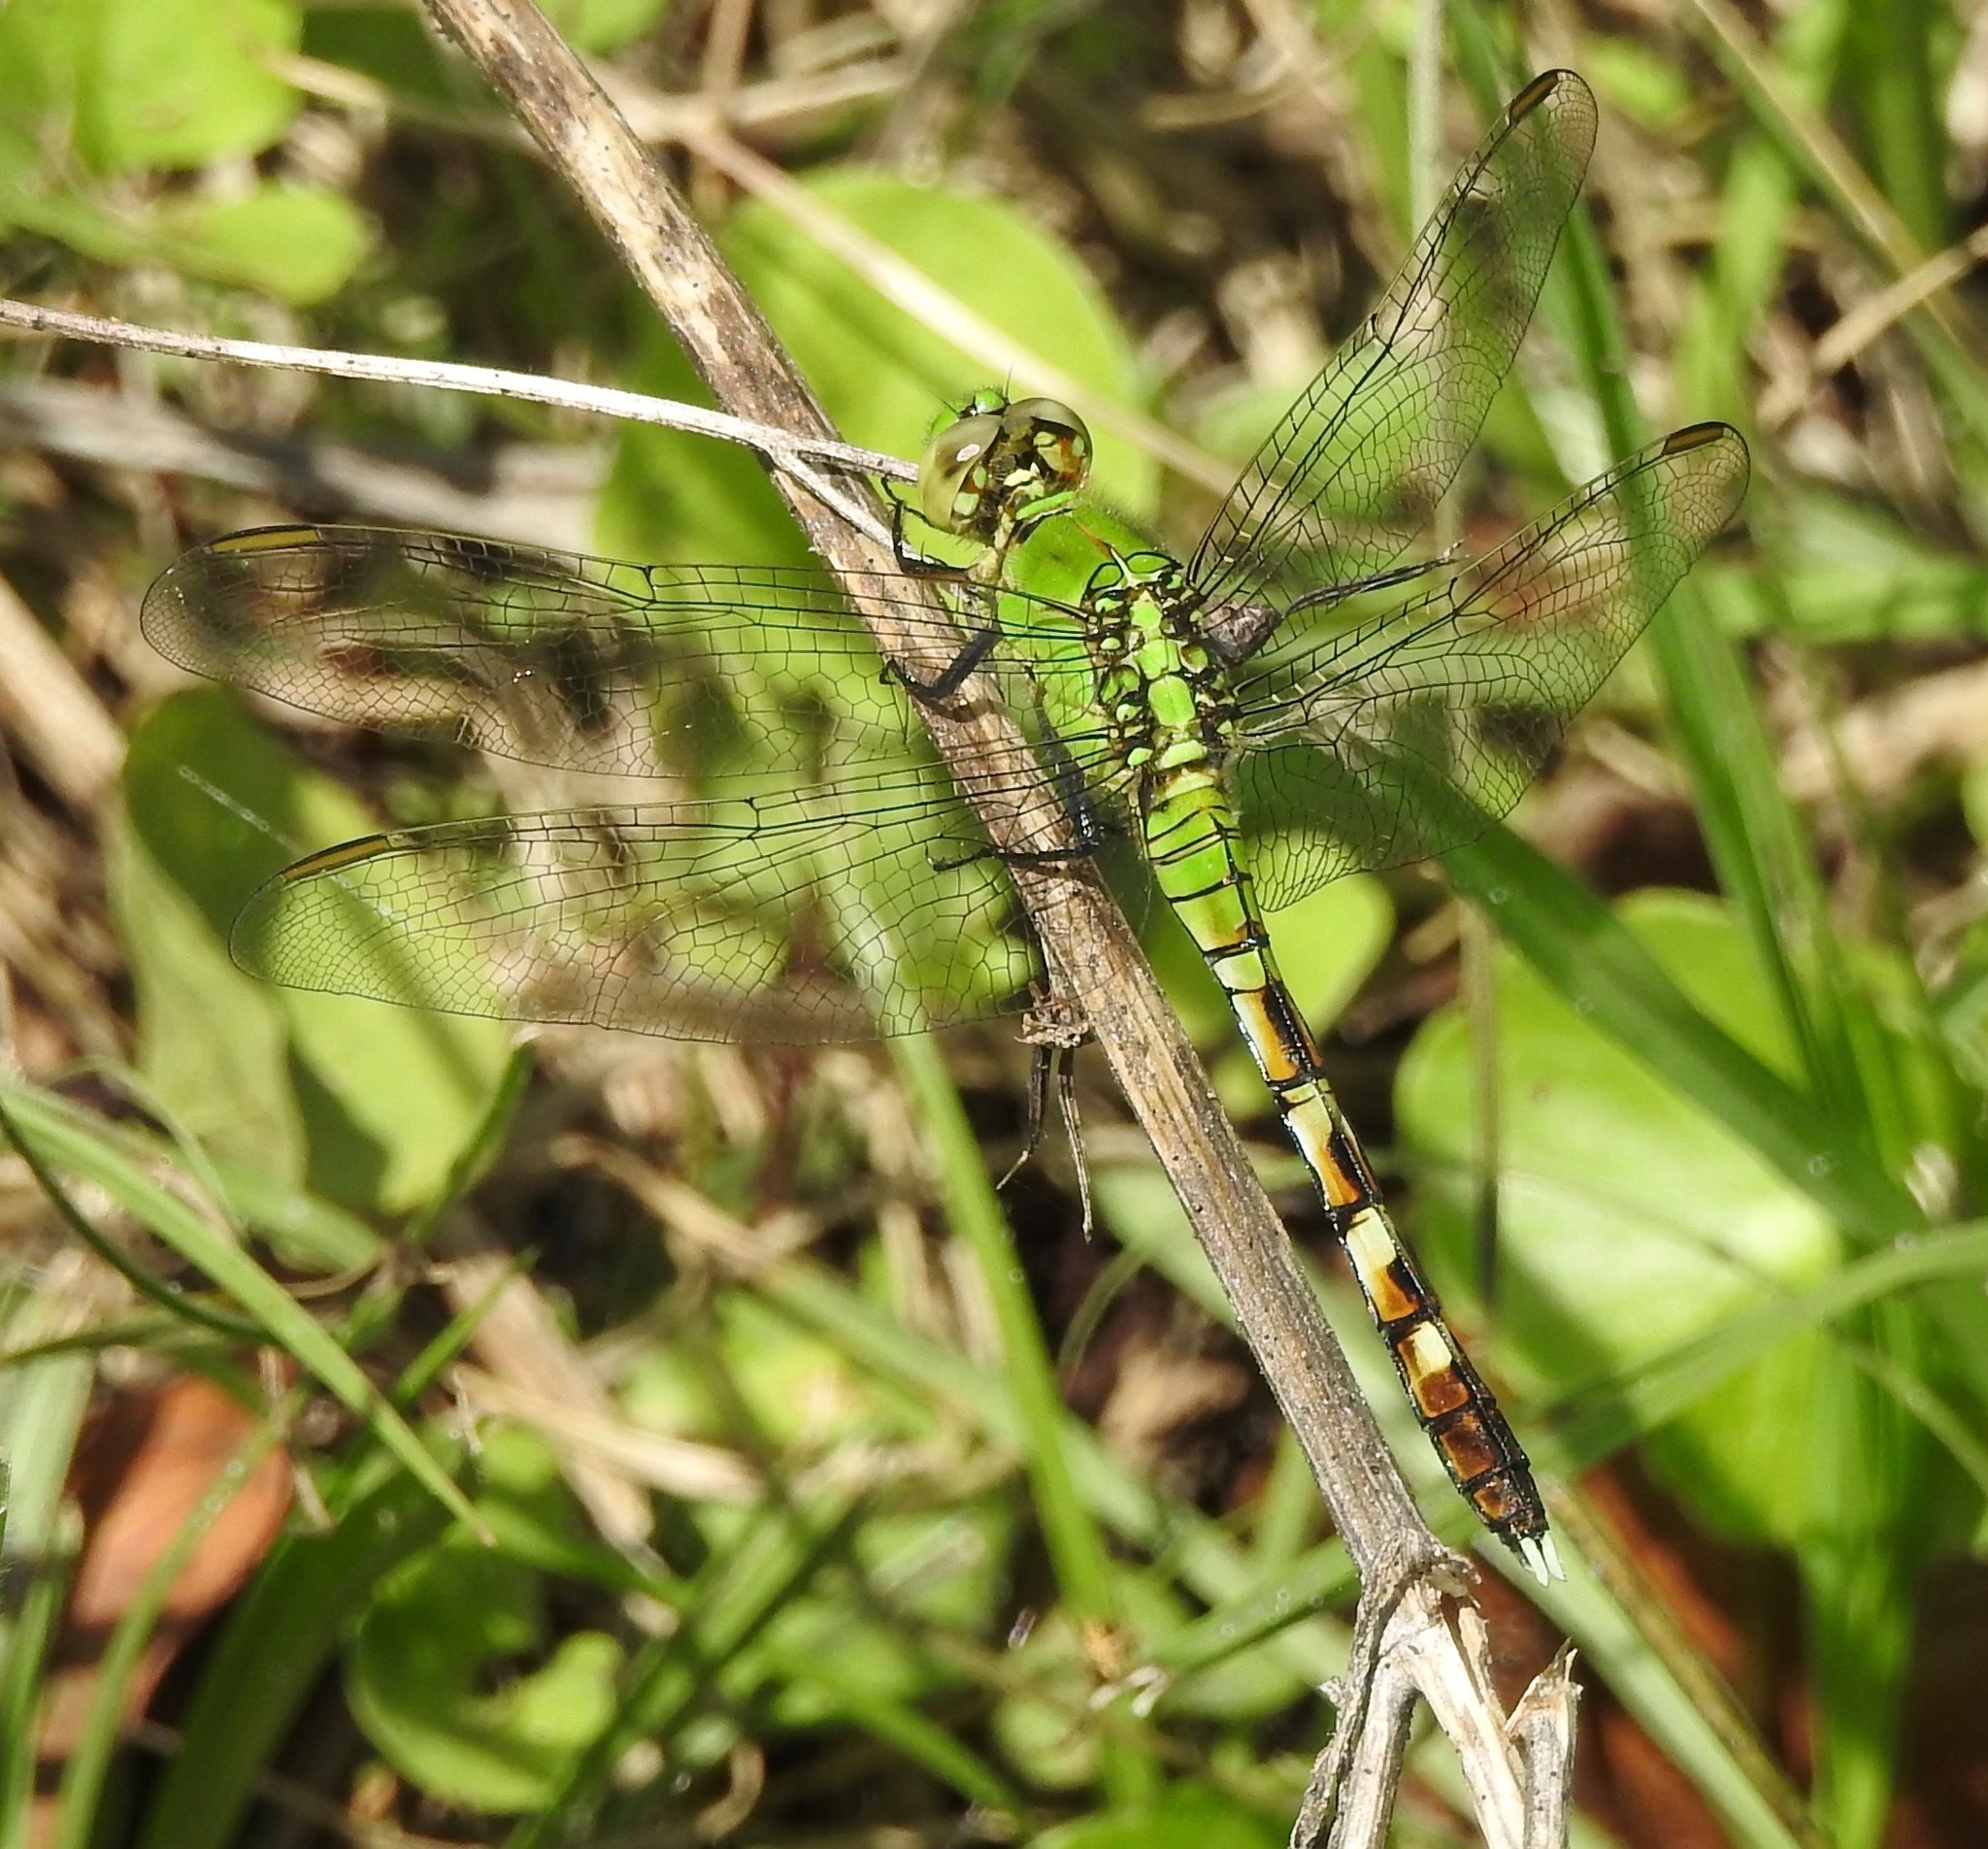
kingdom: Animalia
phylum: Arthropoda
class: Insecta
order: Odonata
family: Libellulidae
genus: Erythemis
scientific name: Erythemis simplicicollis
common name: Eastern pondhawk
